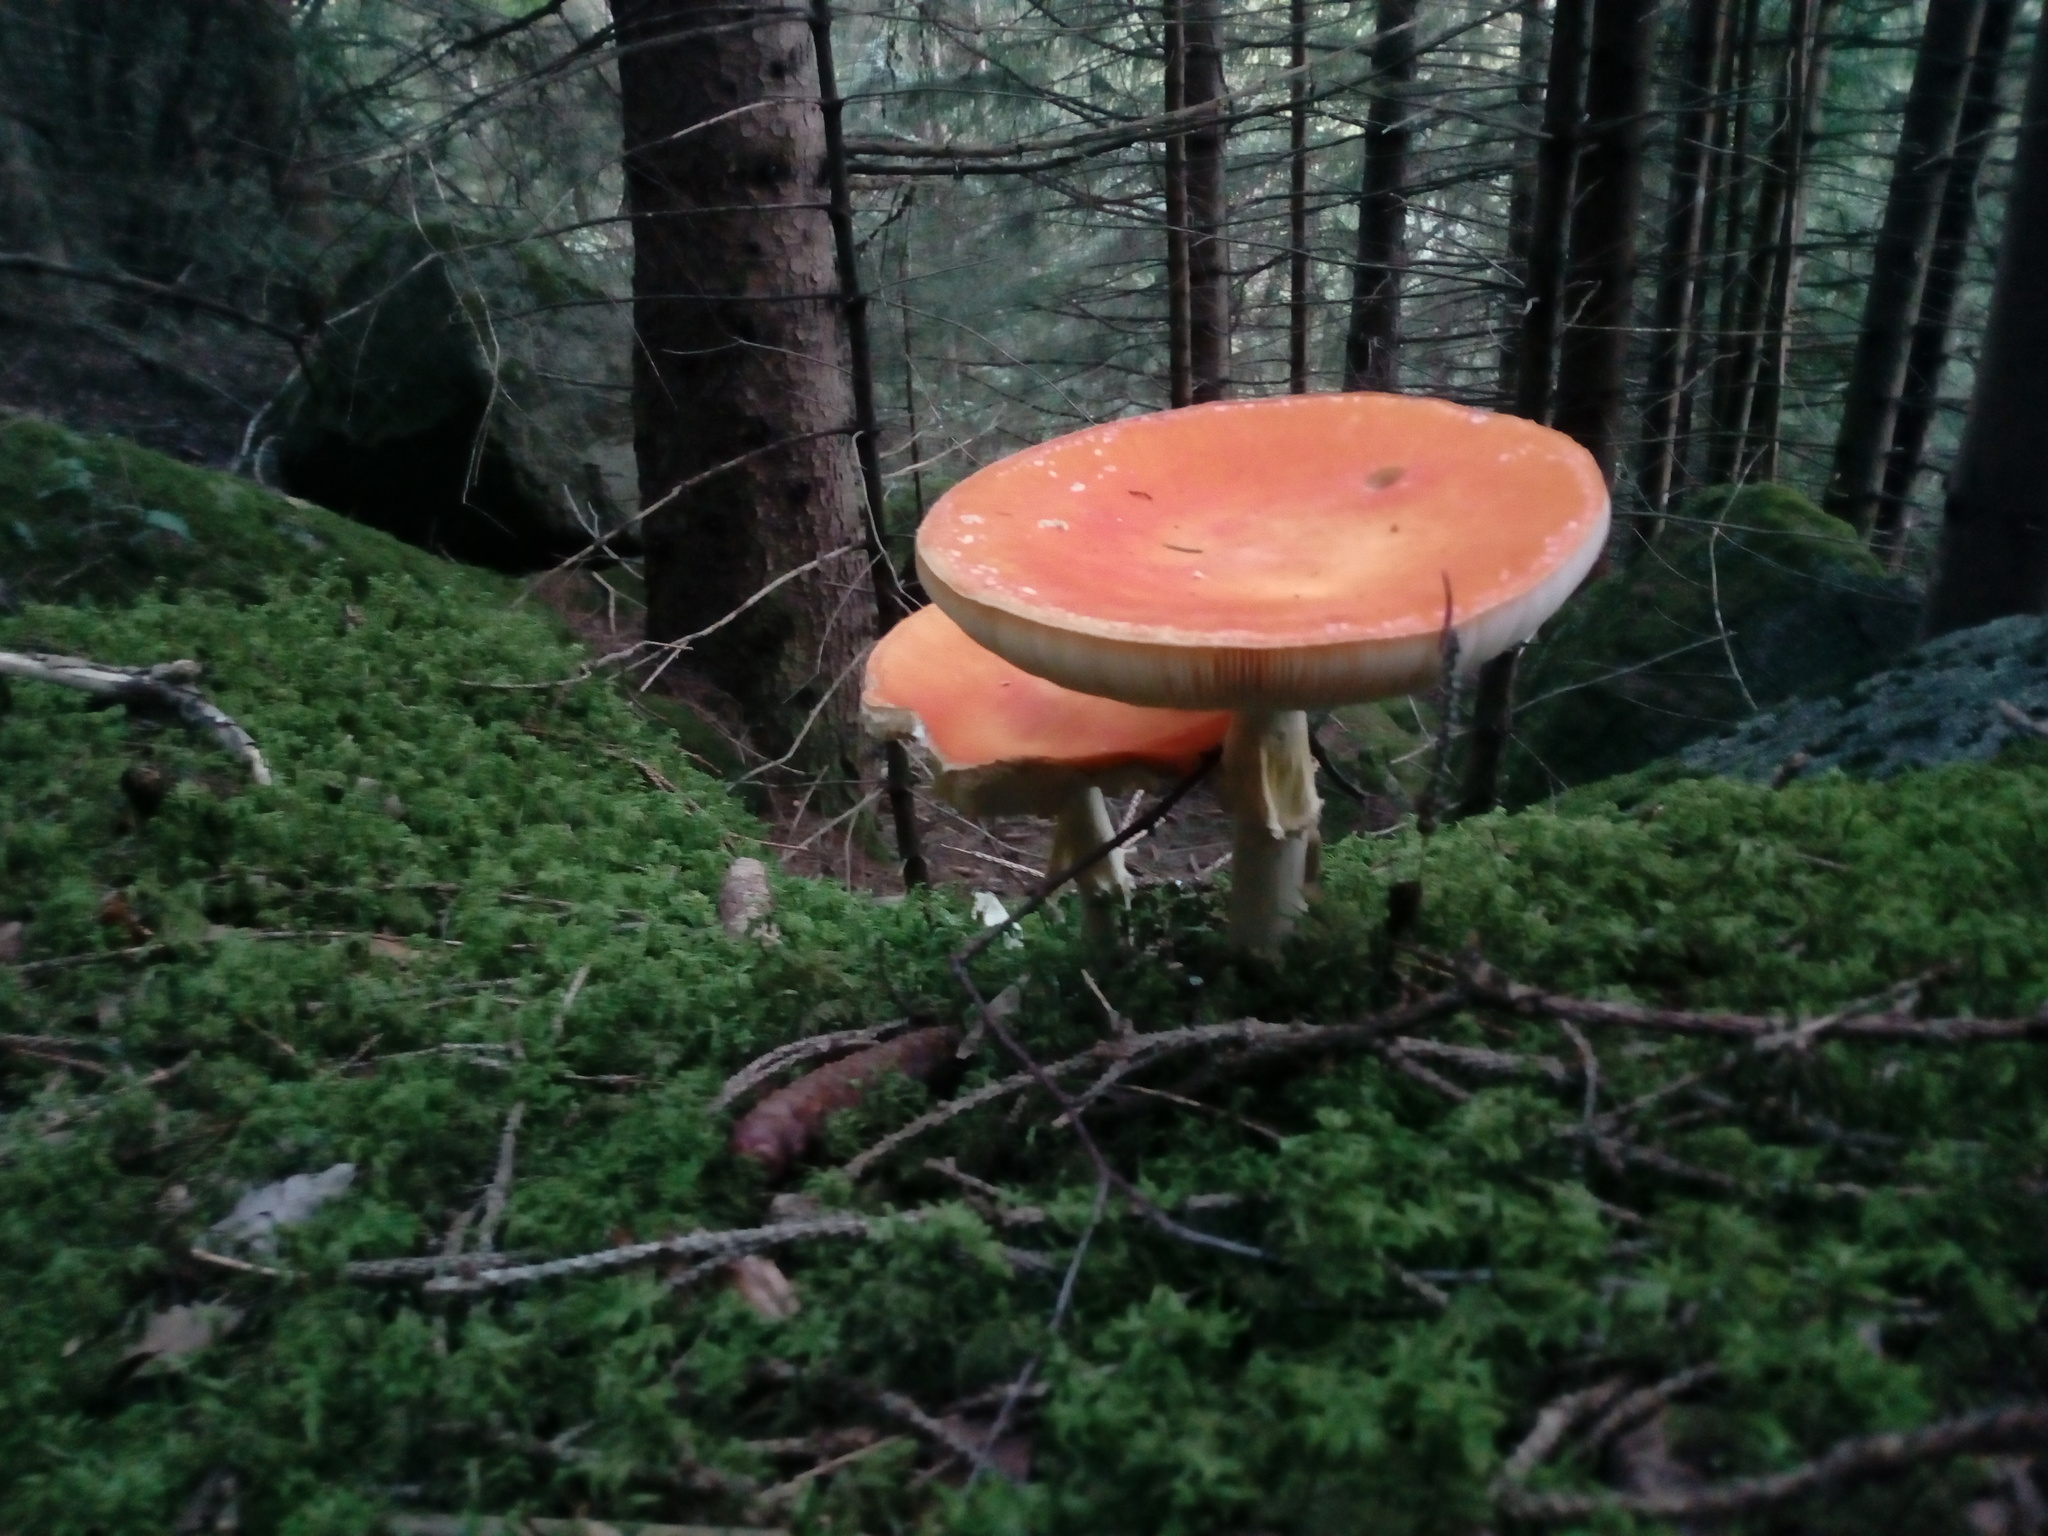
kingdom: Fungi
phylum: Basidiomycota
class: Agaricomycetes
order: Agaricales
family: Amanitaceae
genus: Amanita
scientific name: Amanita muscaria
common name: Fly agaric
